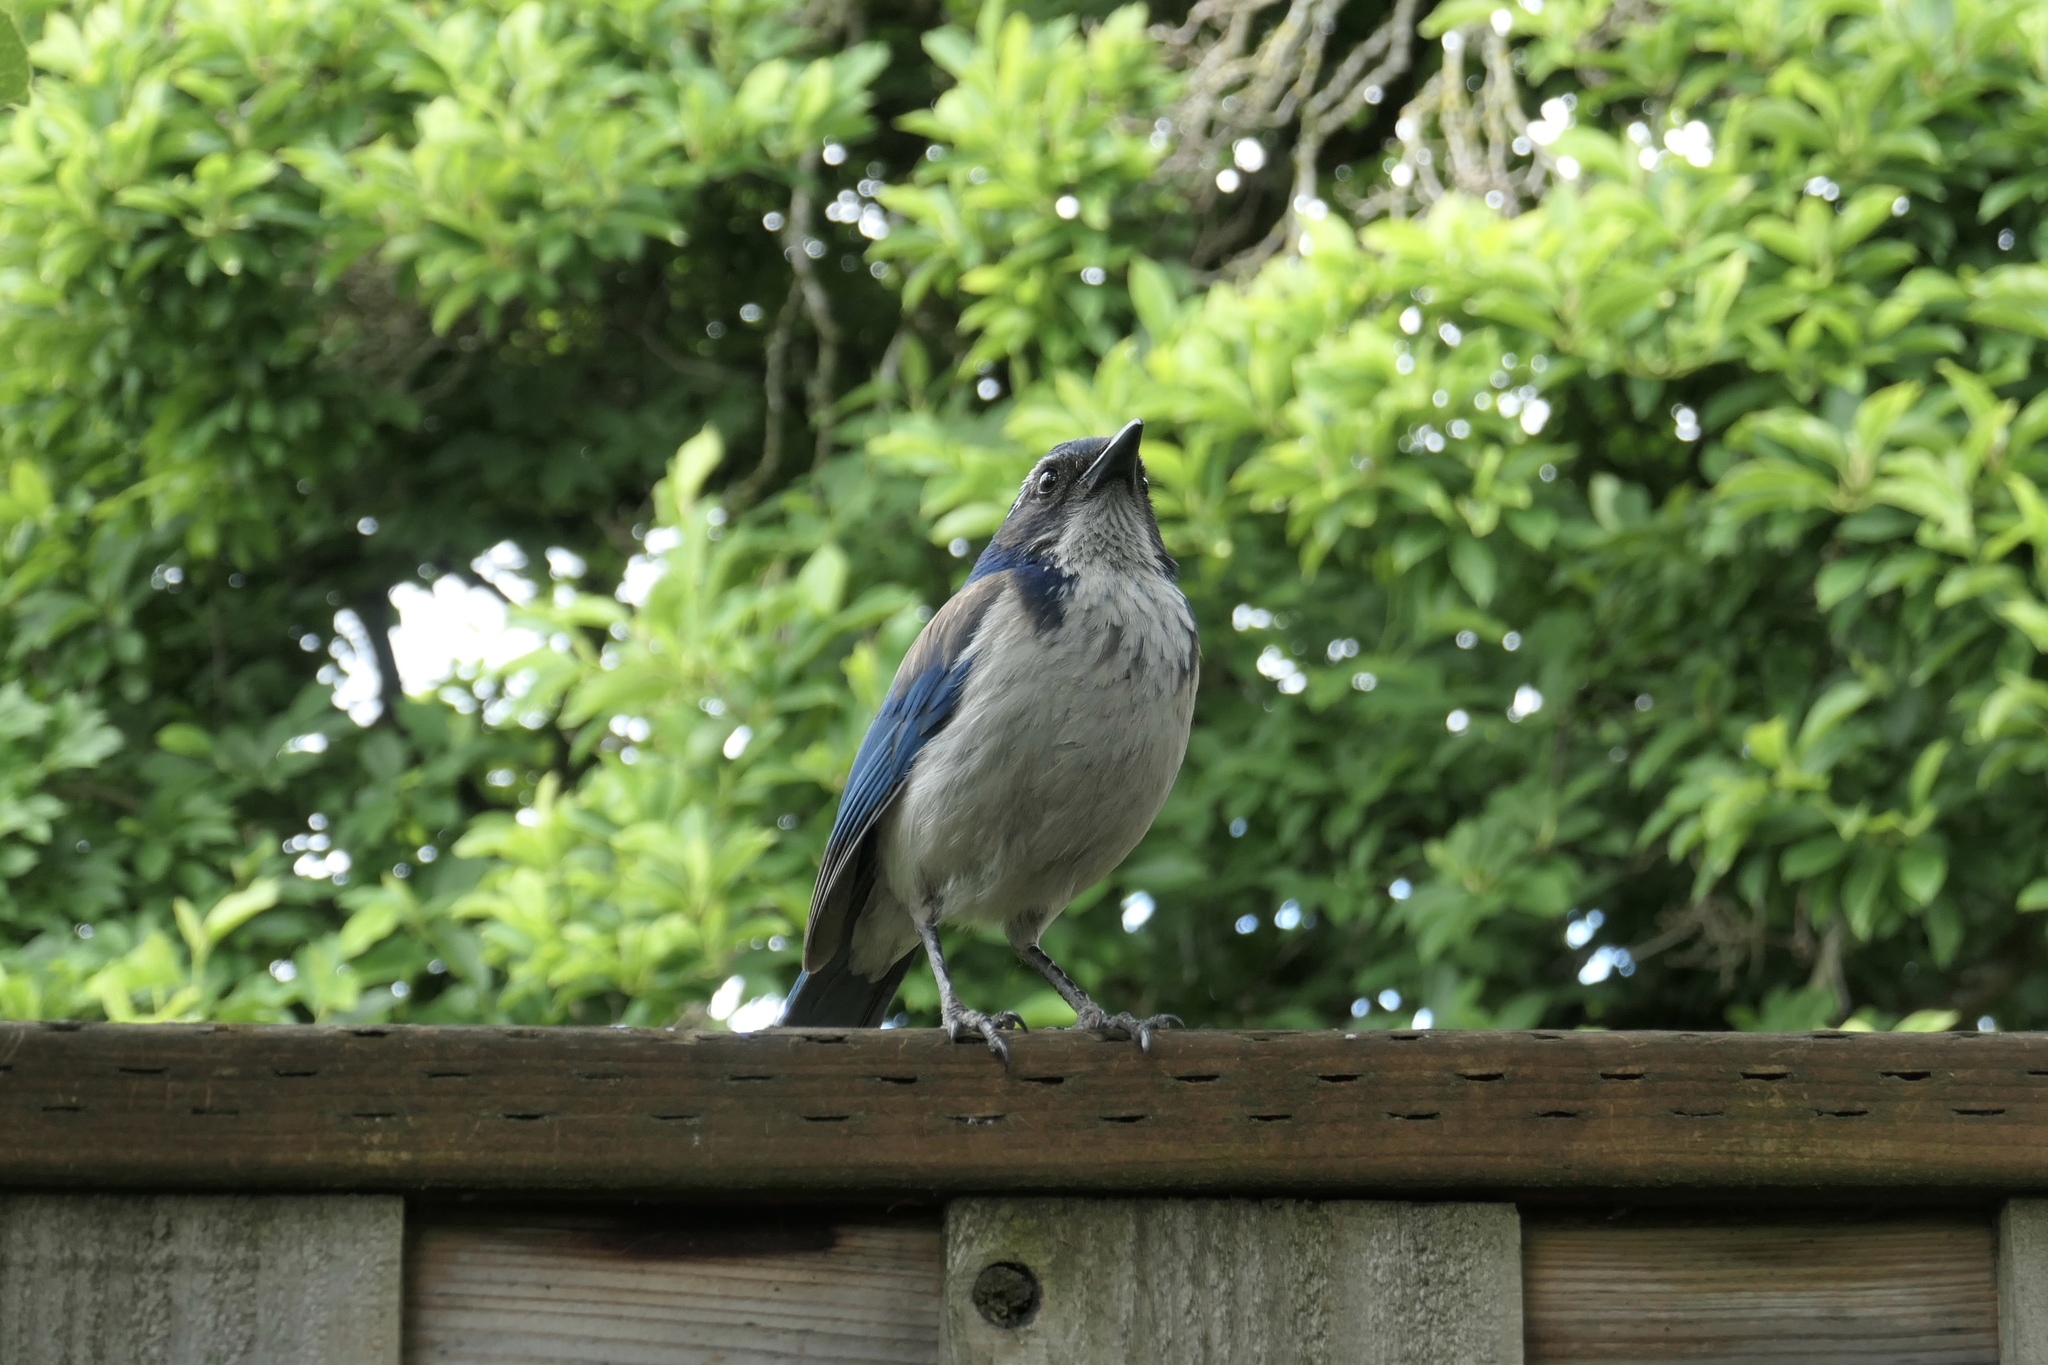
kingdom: Animalia
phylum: Chordata
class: Aves
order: Passeriformes
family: Corvidae
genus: Aphelocoma
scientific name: Aphelocoma californica
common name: California scrub-jay
